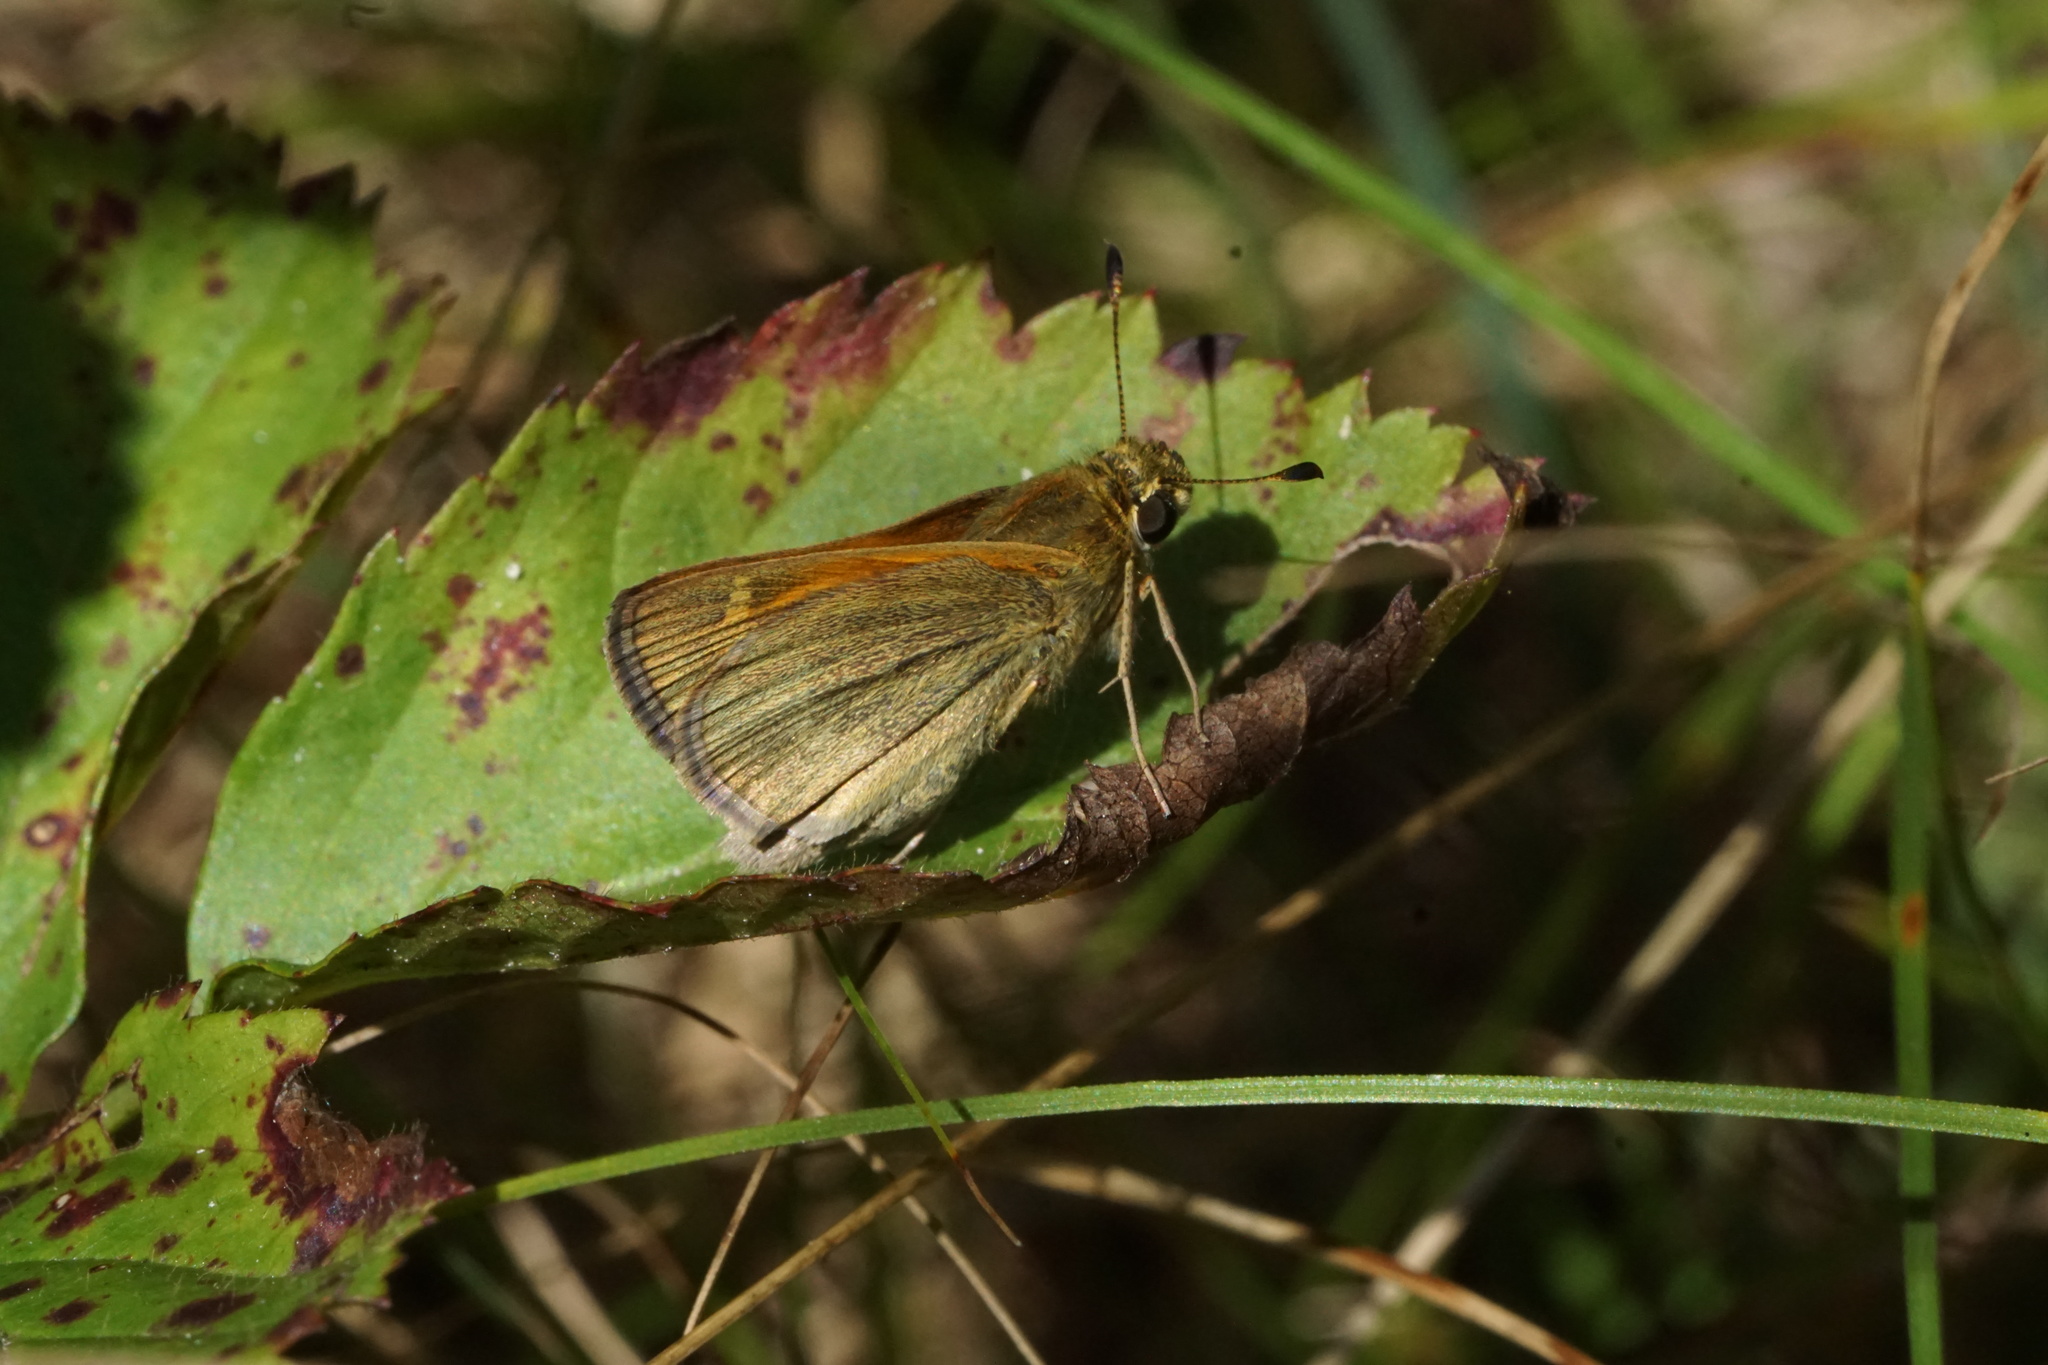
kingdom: Animalia
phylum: Arthropoda
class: Insecta
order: Lepidoptera
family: Hesperiidae
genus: Polites
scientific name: Polites themistocles
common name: Tawny-edged skipper
